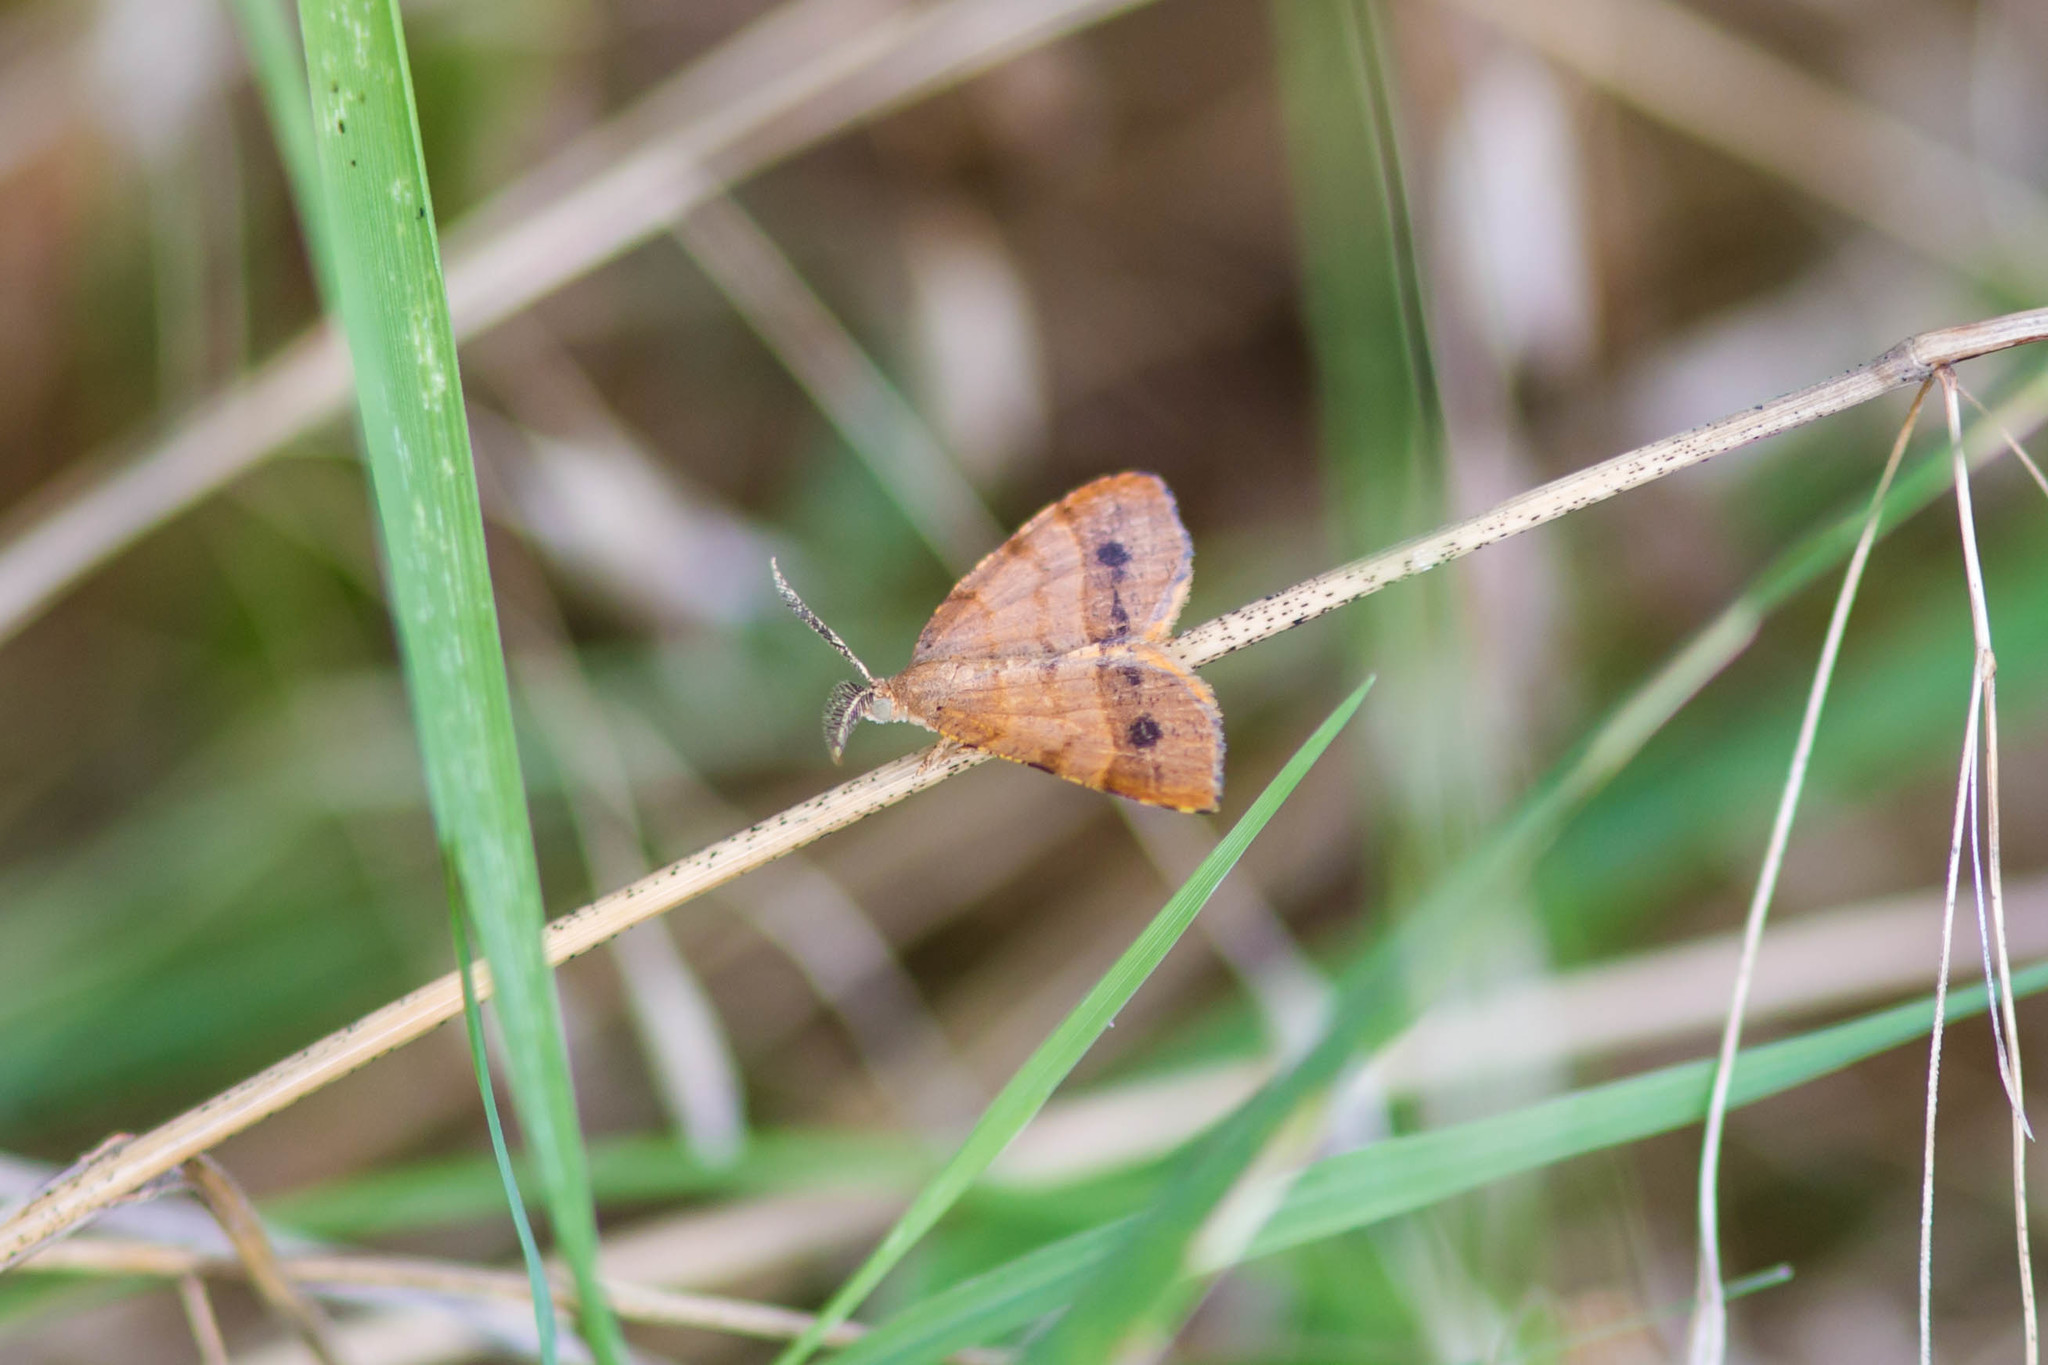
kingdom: Animalia
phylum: Arthropoda
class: Insecta
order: Lepidoptera
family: Geometridae
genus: Mellilla
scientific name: Mellilla xanthometata
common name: Orange wing moth
